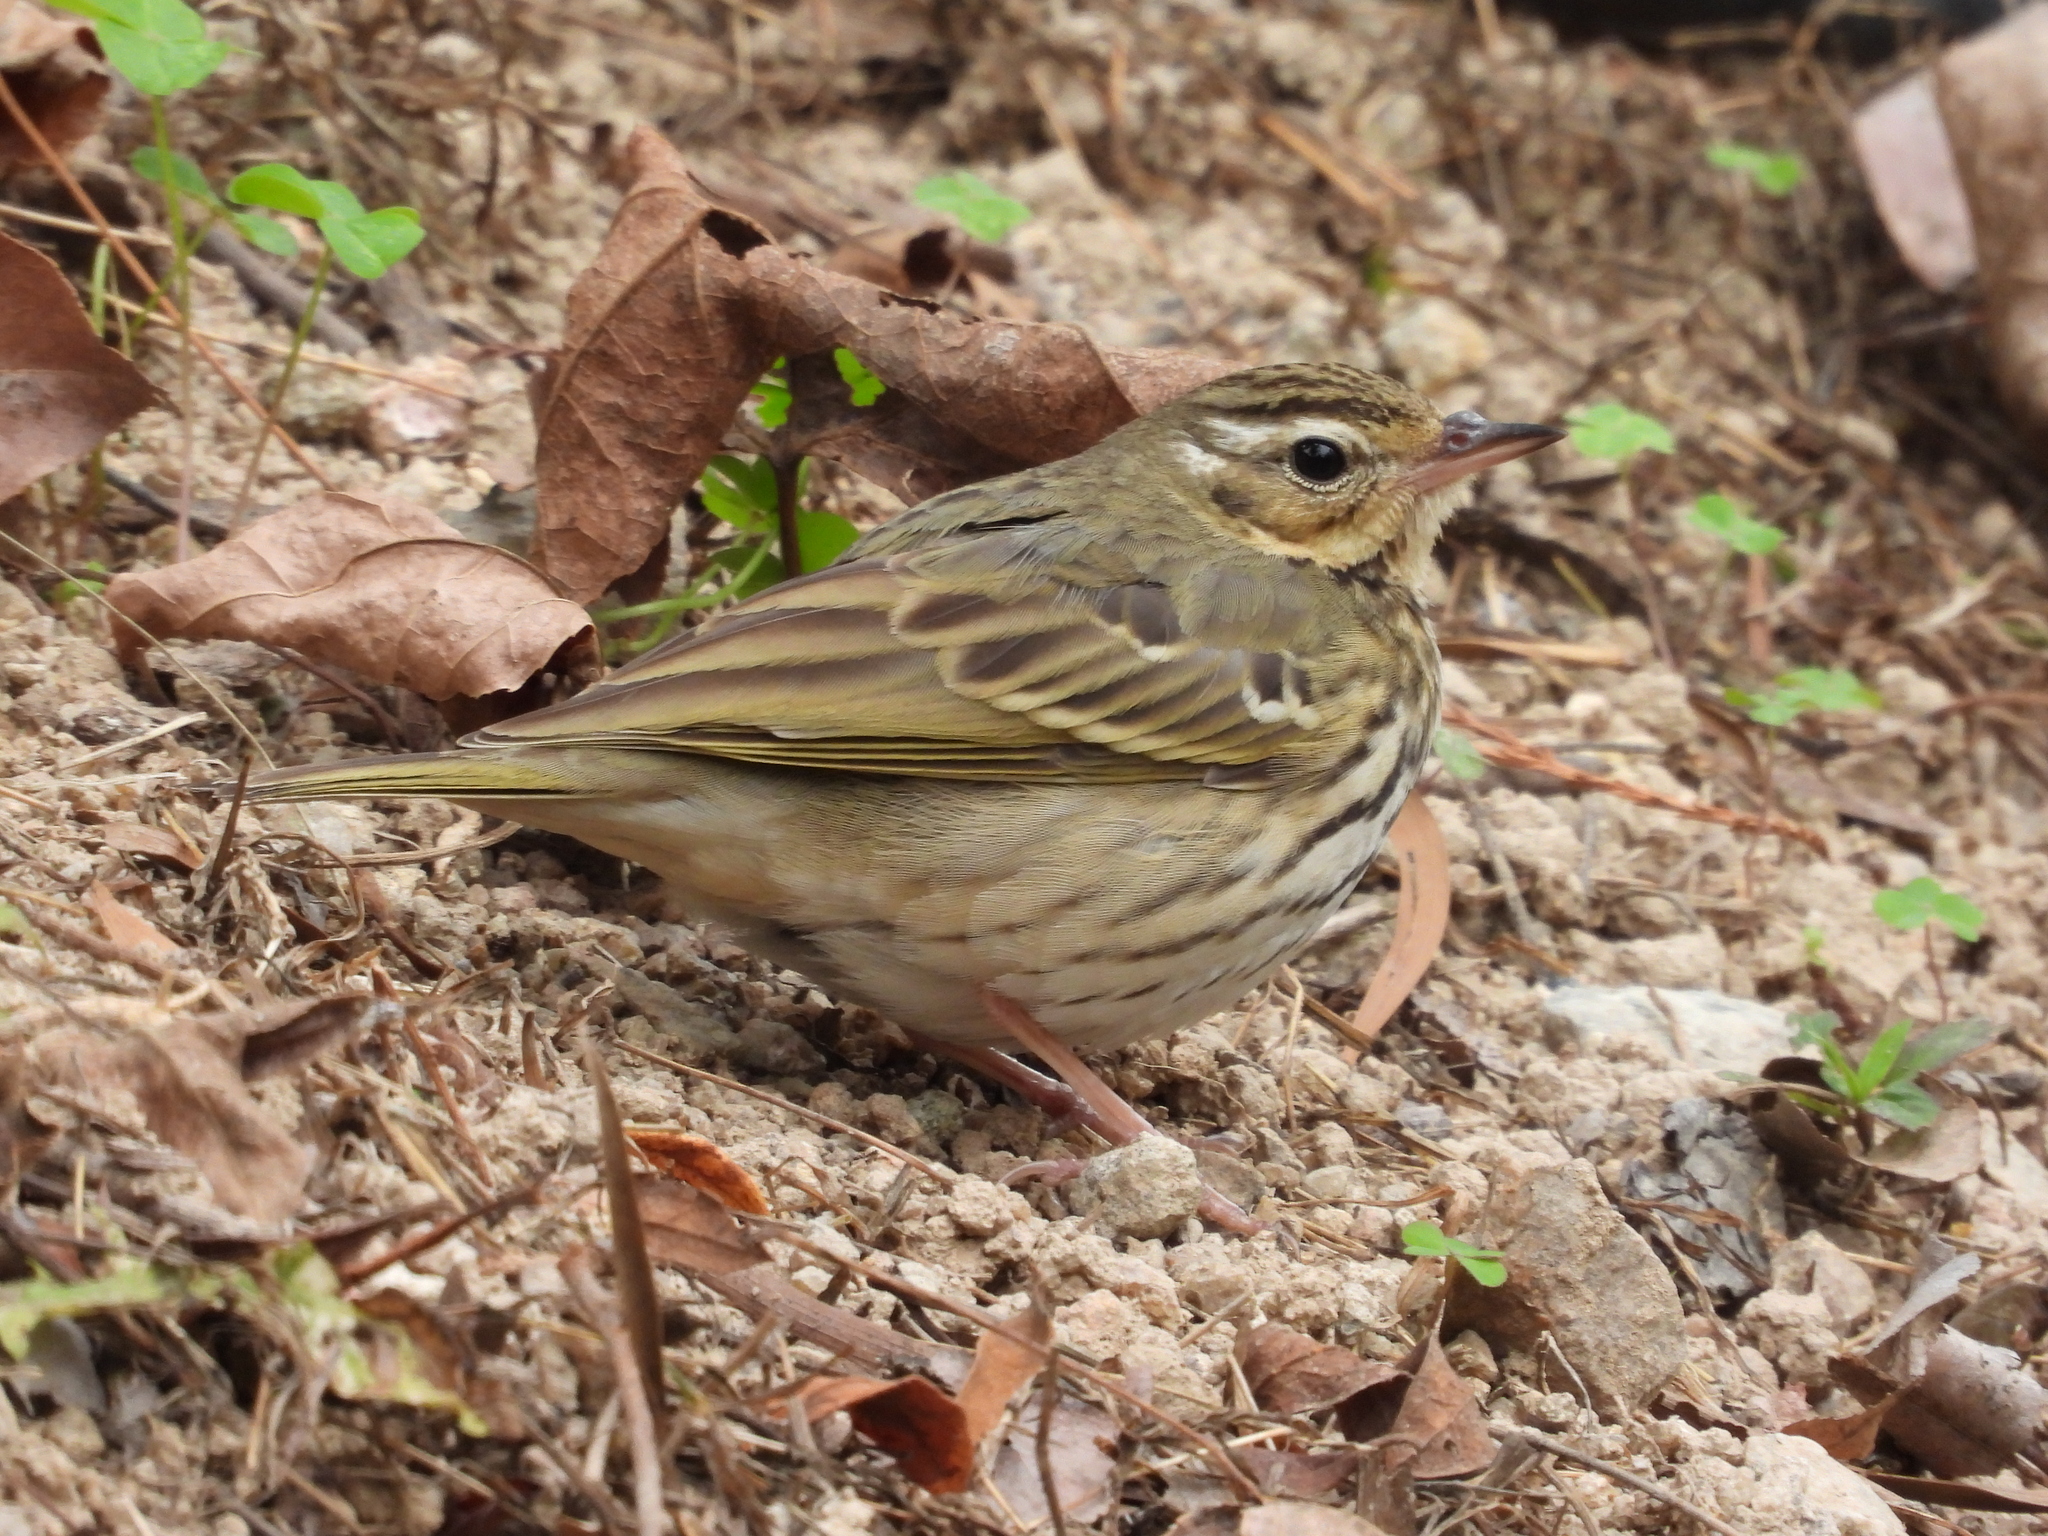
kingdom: Animalia
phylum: Chordata
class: Aves
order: Passeriformes
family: Motacillidae
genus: Anthus
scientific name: Anthus hodgsoni
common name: Olive-backed pipit
